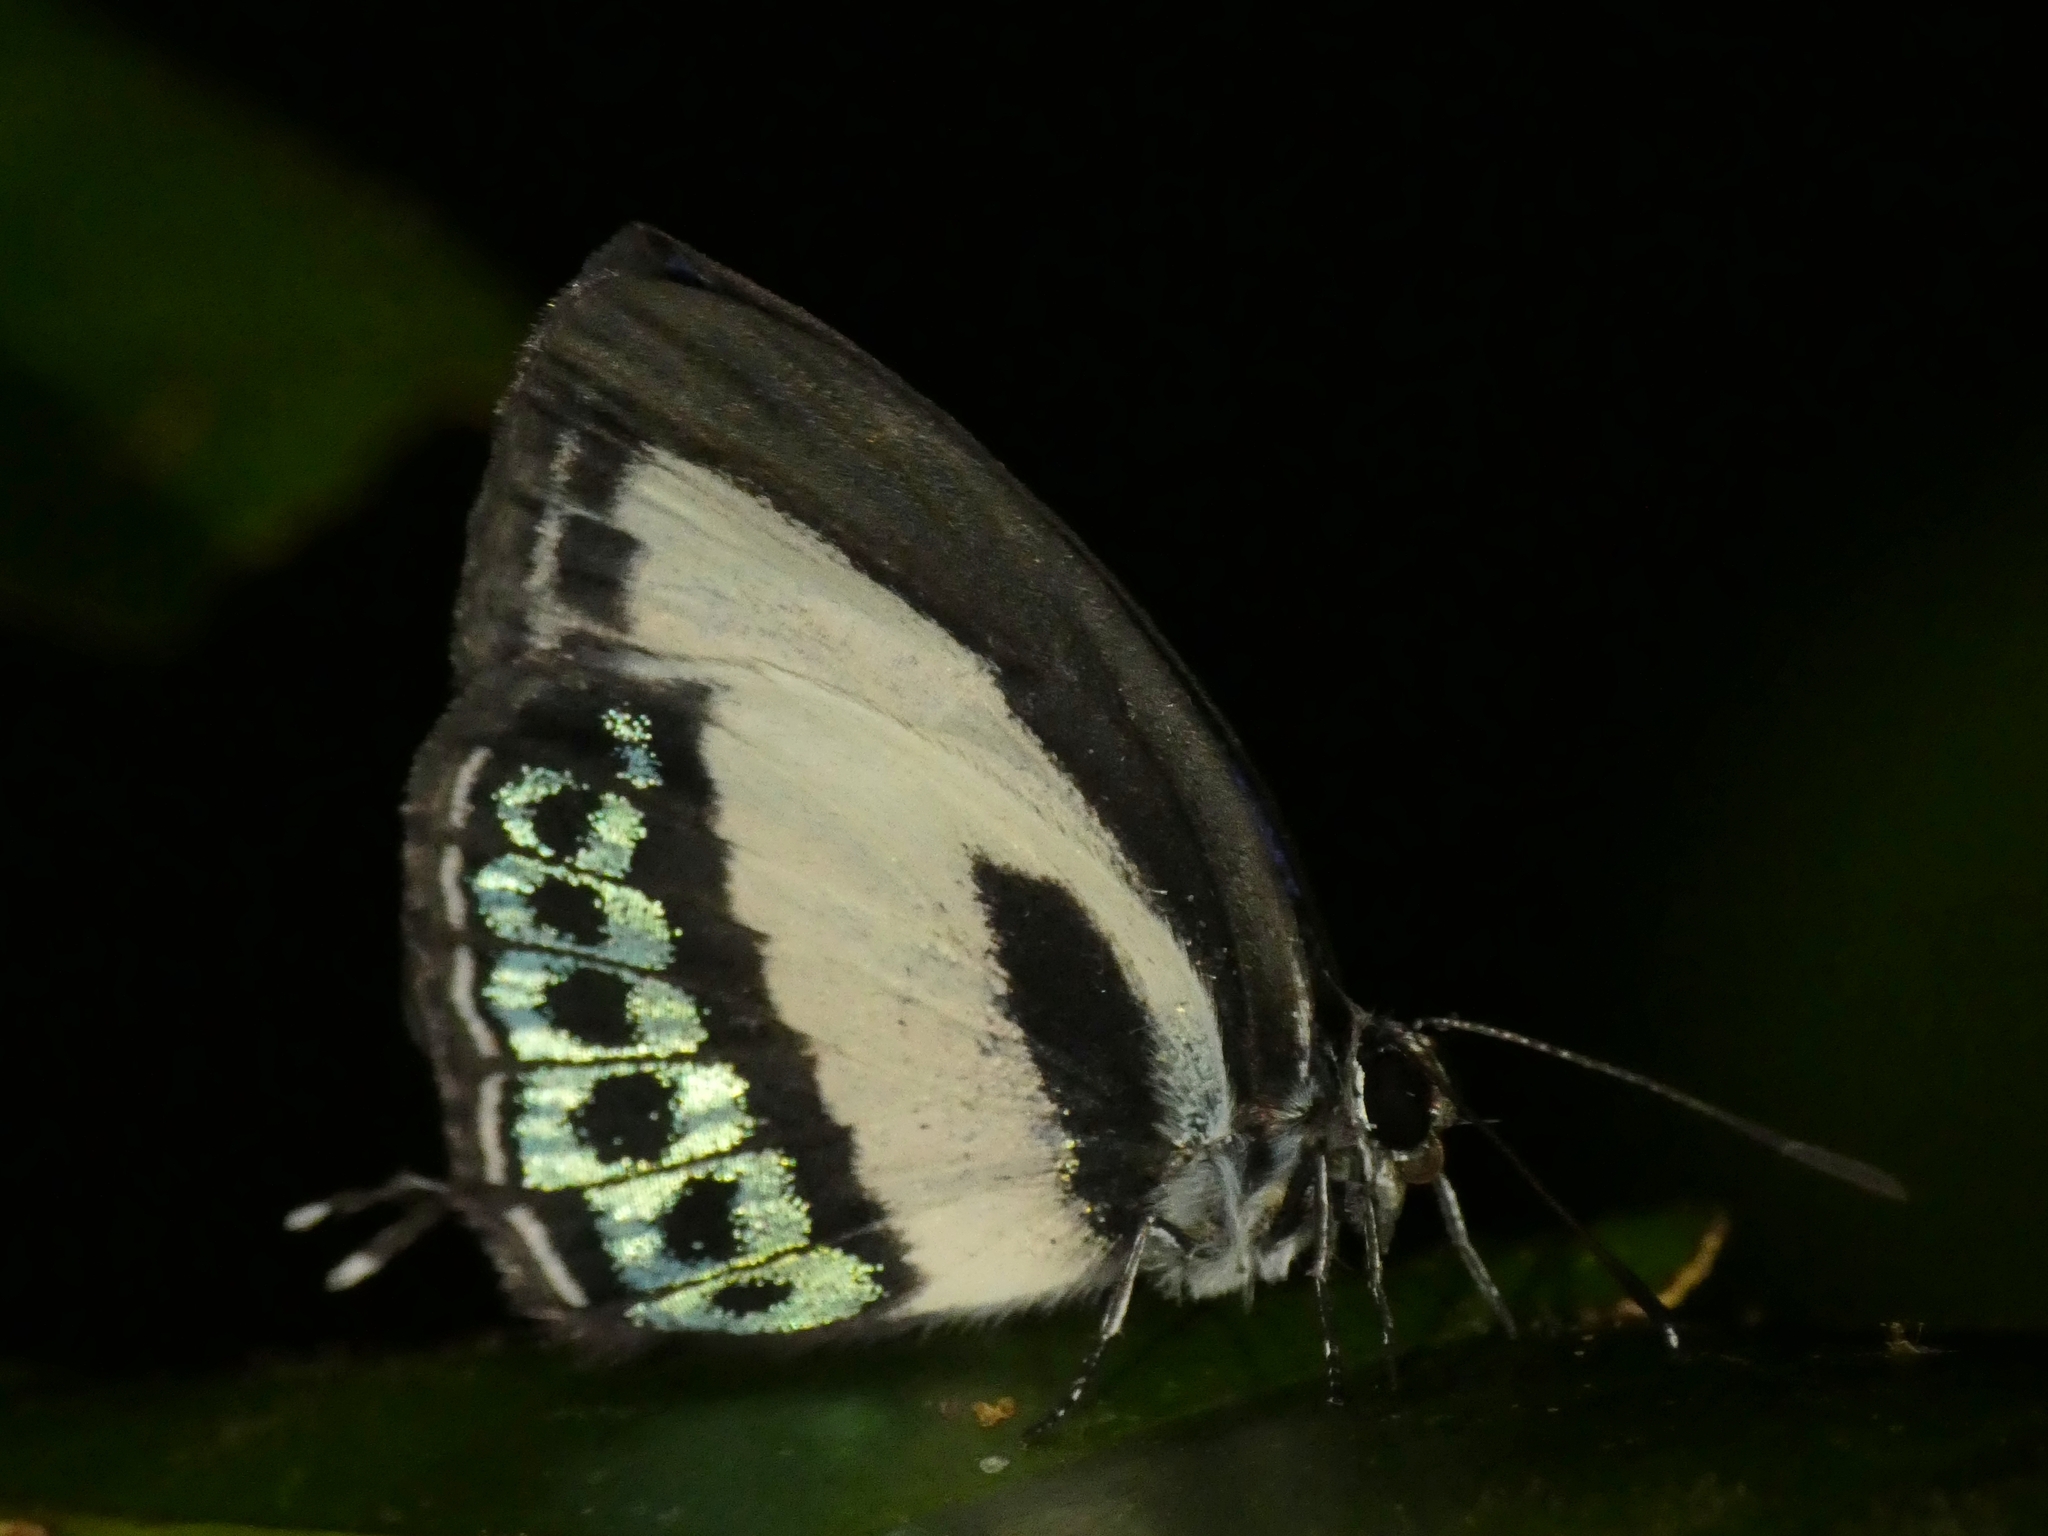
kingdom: Animalia
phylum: Arthropoda
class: Insecta
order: Lepidoptera
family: Lycaenidae
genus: Nacaduba
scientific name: Nacaduba cyanea
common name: Tailed green-banded line blue
